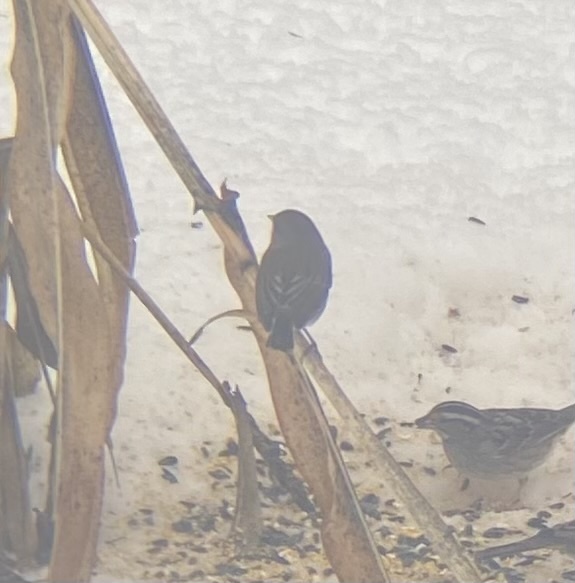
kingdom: Animalia
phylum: Chordata
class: Aves
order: Passeriformes
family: Passerellidae
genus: Junco
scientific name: Junco hyemalis
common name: Dark-eyed junco
